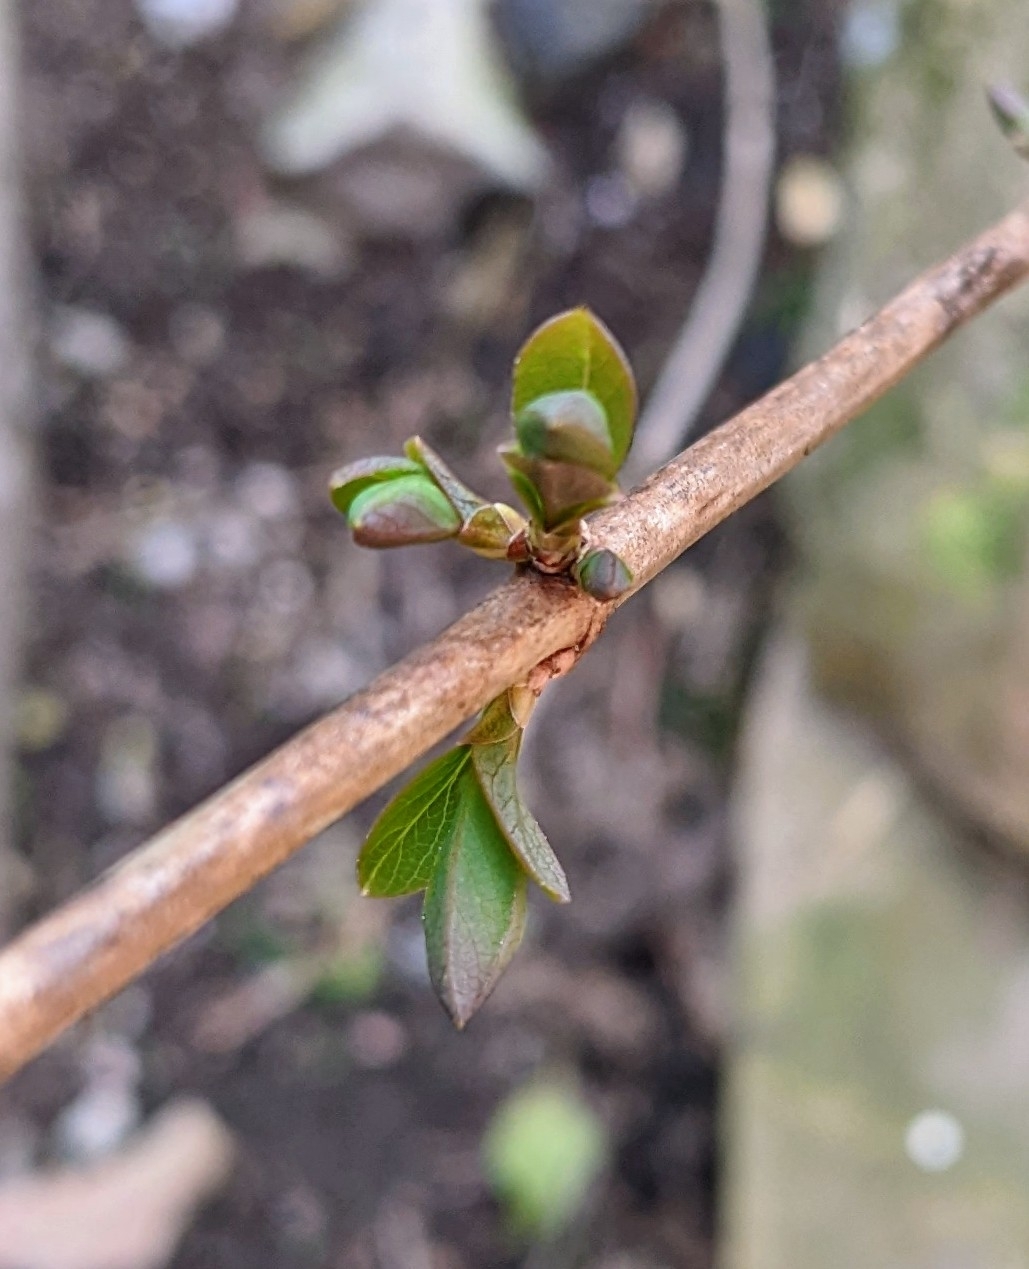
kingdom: Plantae
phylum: Tracheophyta
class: Magnoliopsida
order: Lamiales
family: Oleaceae
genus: Forsythia
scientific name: Forsythia intermedia
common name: Forsythia
